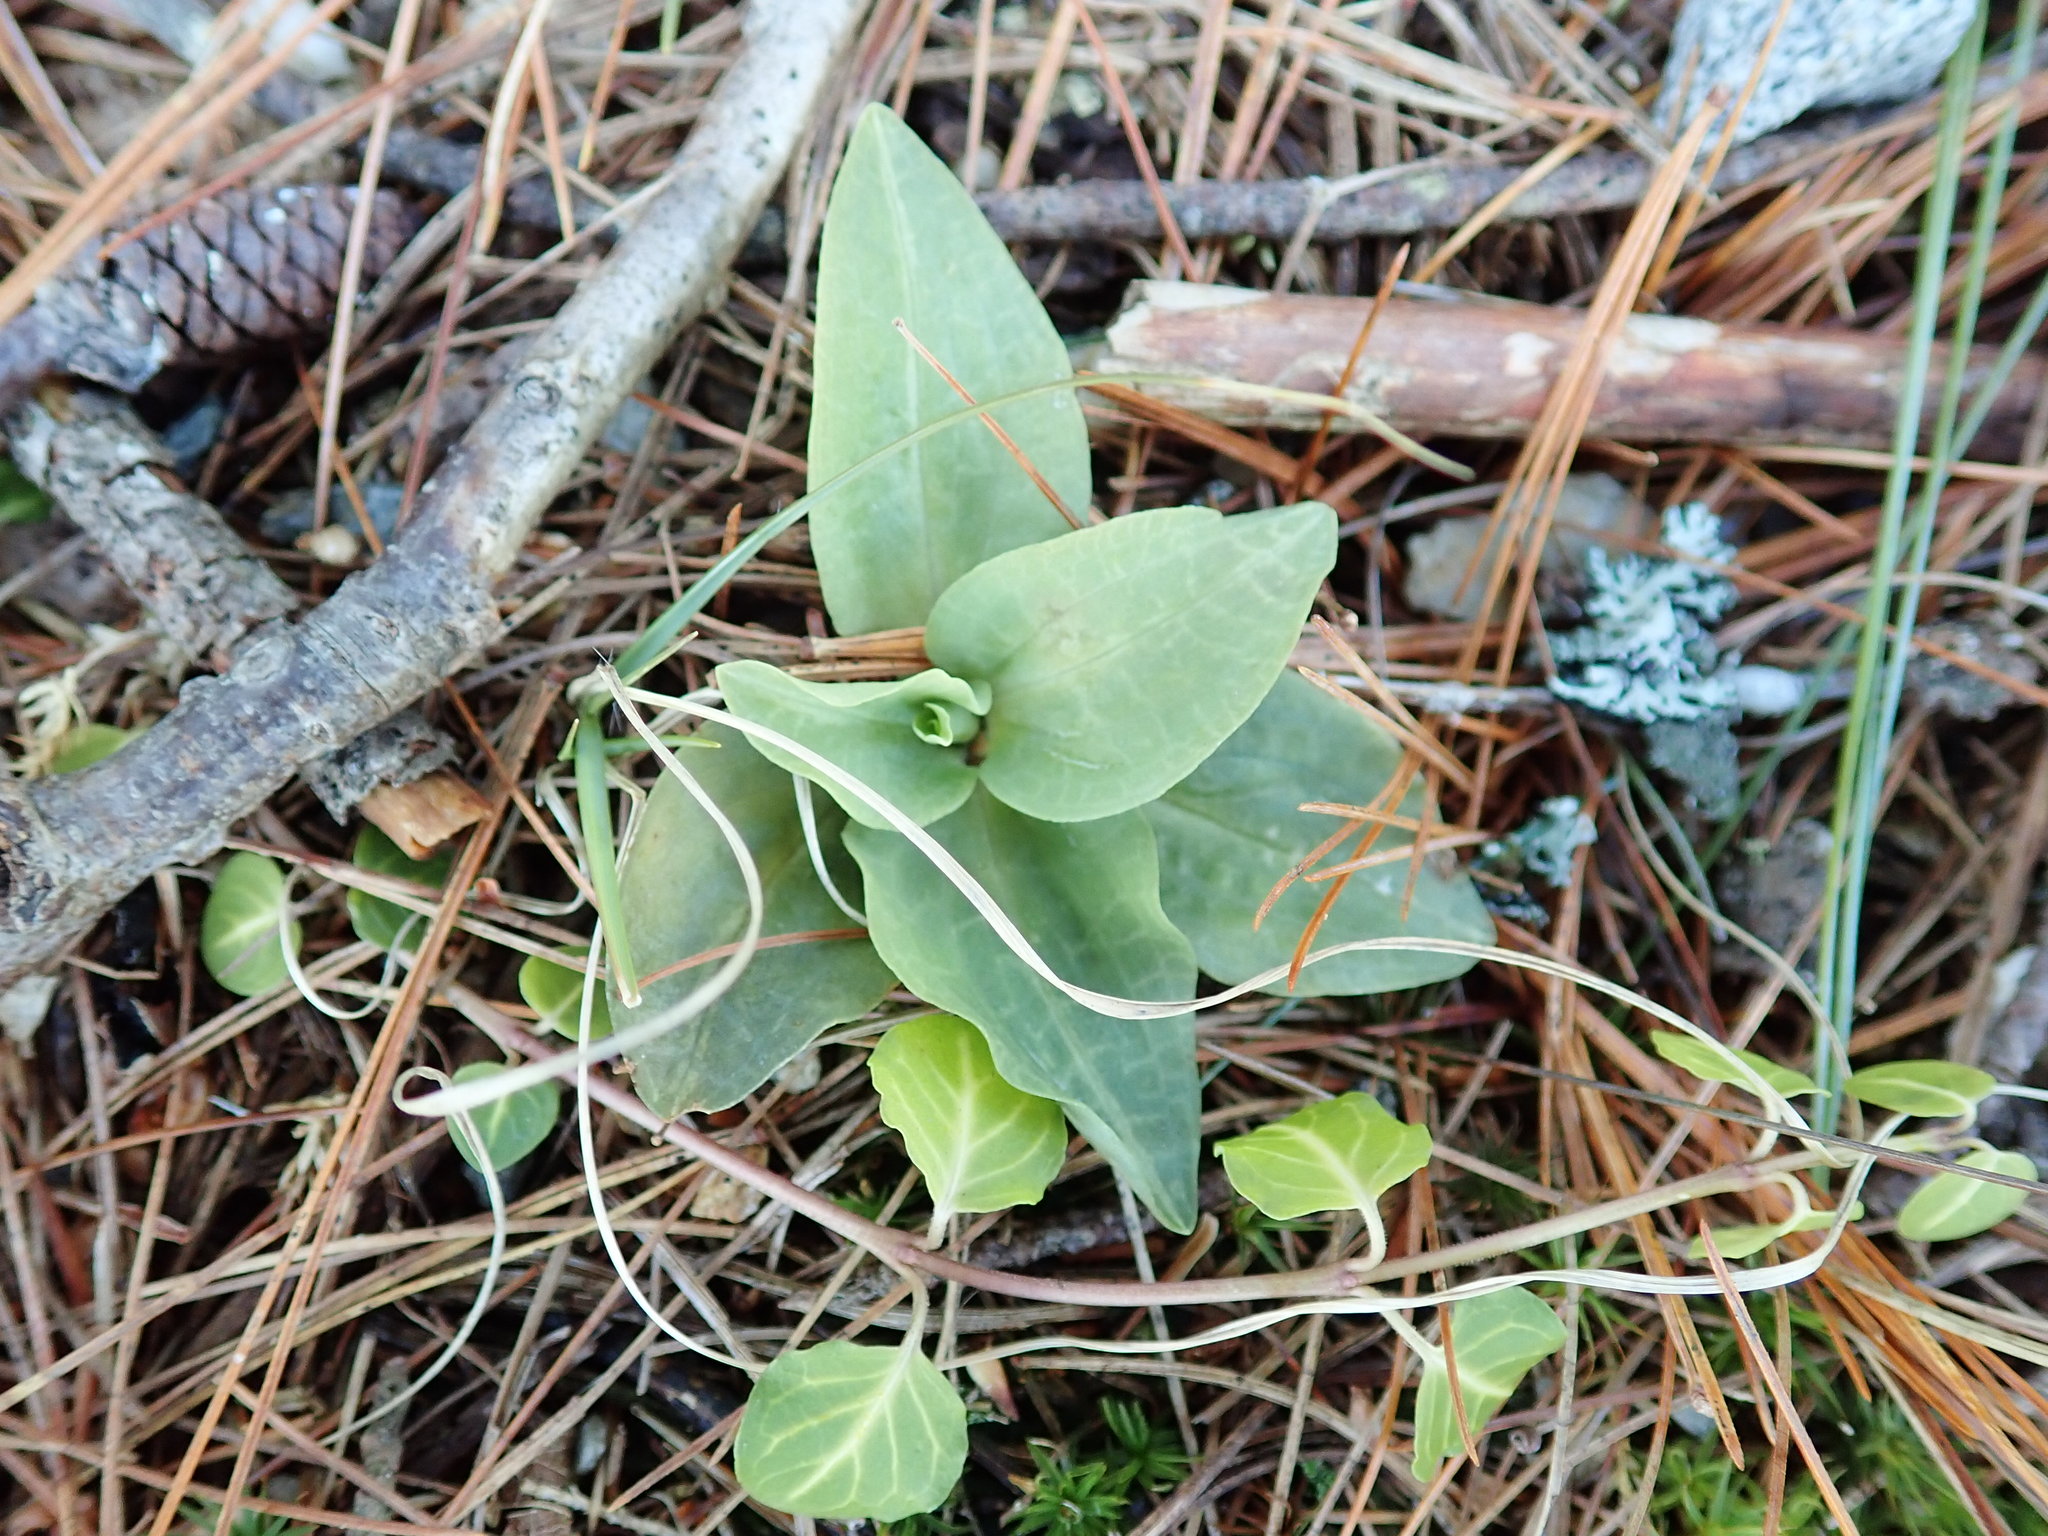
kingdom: Plantae
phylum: Tracheophyta
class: Liliopsida
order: Asparagales
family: Orchidaceae
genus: Goodyera
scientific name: Goodyera tesselata
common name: Checkered rattlesnake-plantain
